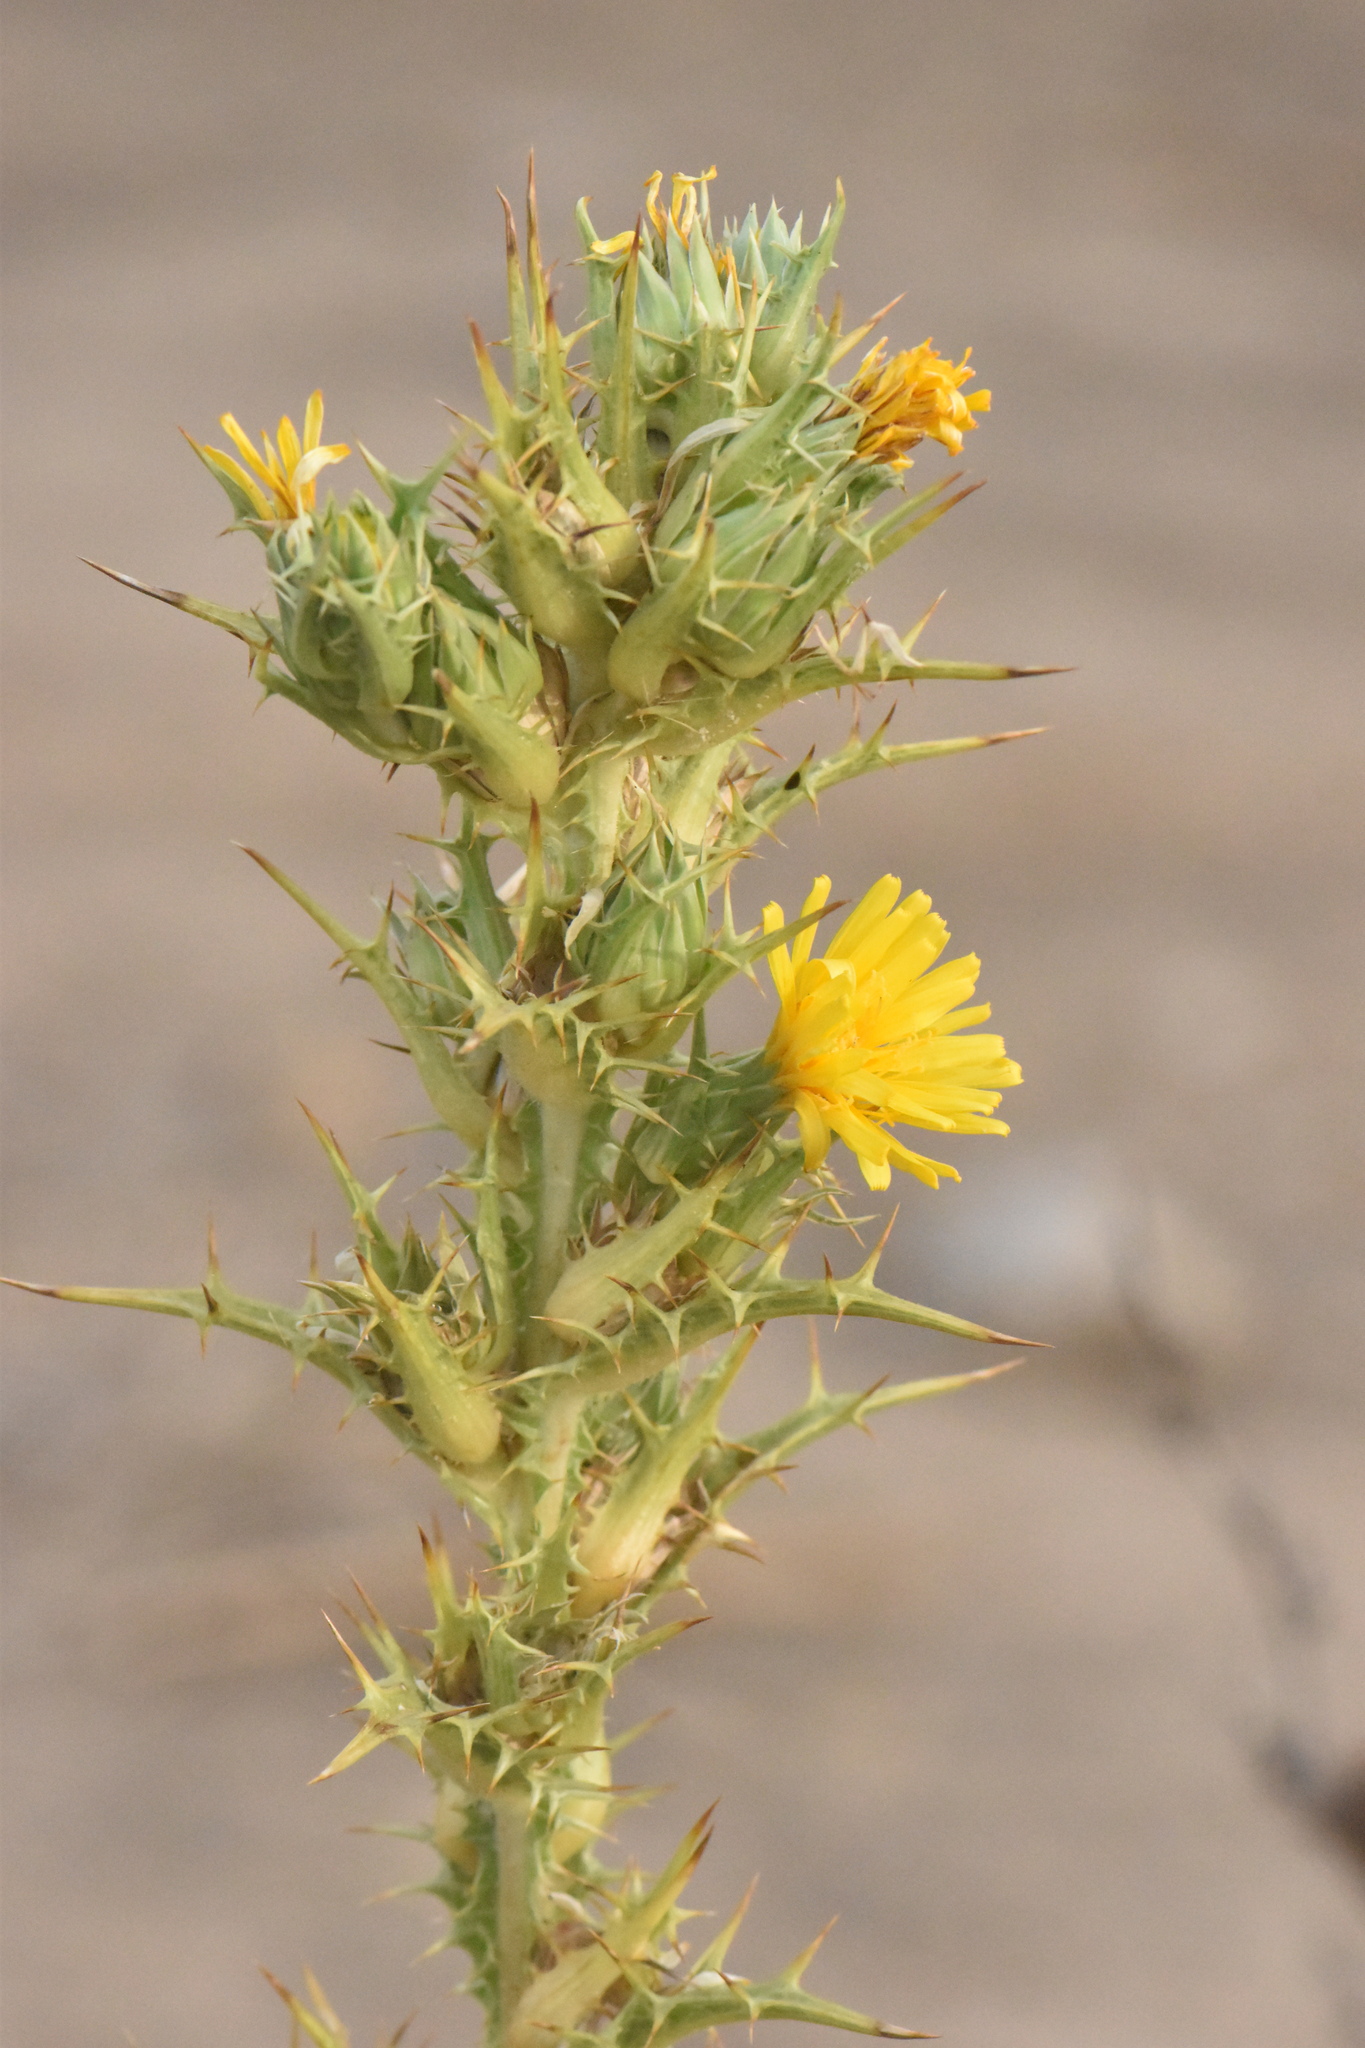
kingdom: Plantae
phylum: Tracheophyta
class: Magnoliopsida
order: Asterales
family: Asteraceae
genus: Scolymus
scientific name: Scolymus hispanicus
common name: Golden thistle
